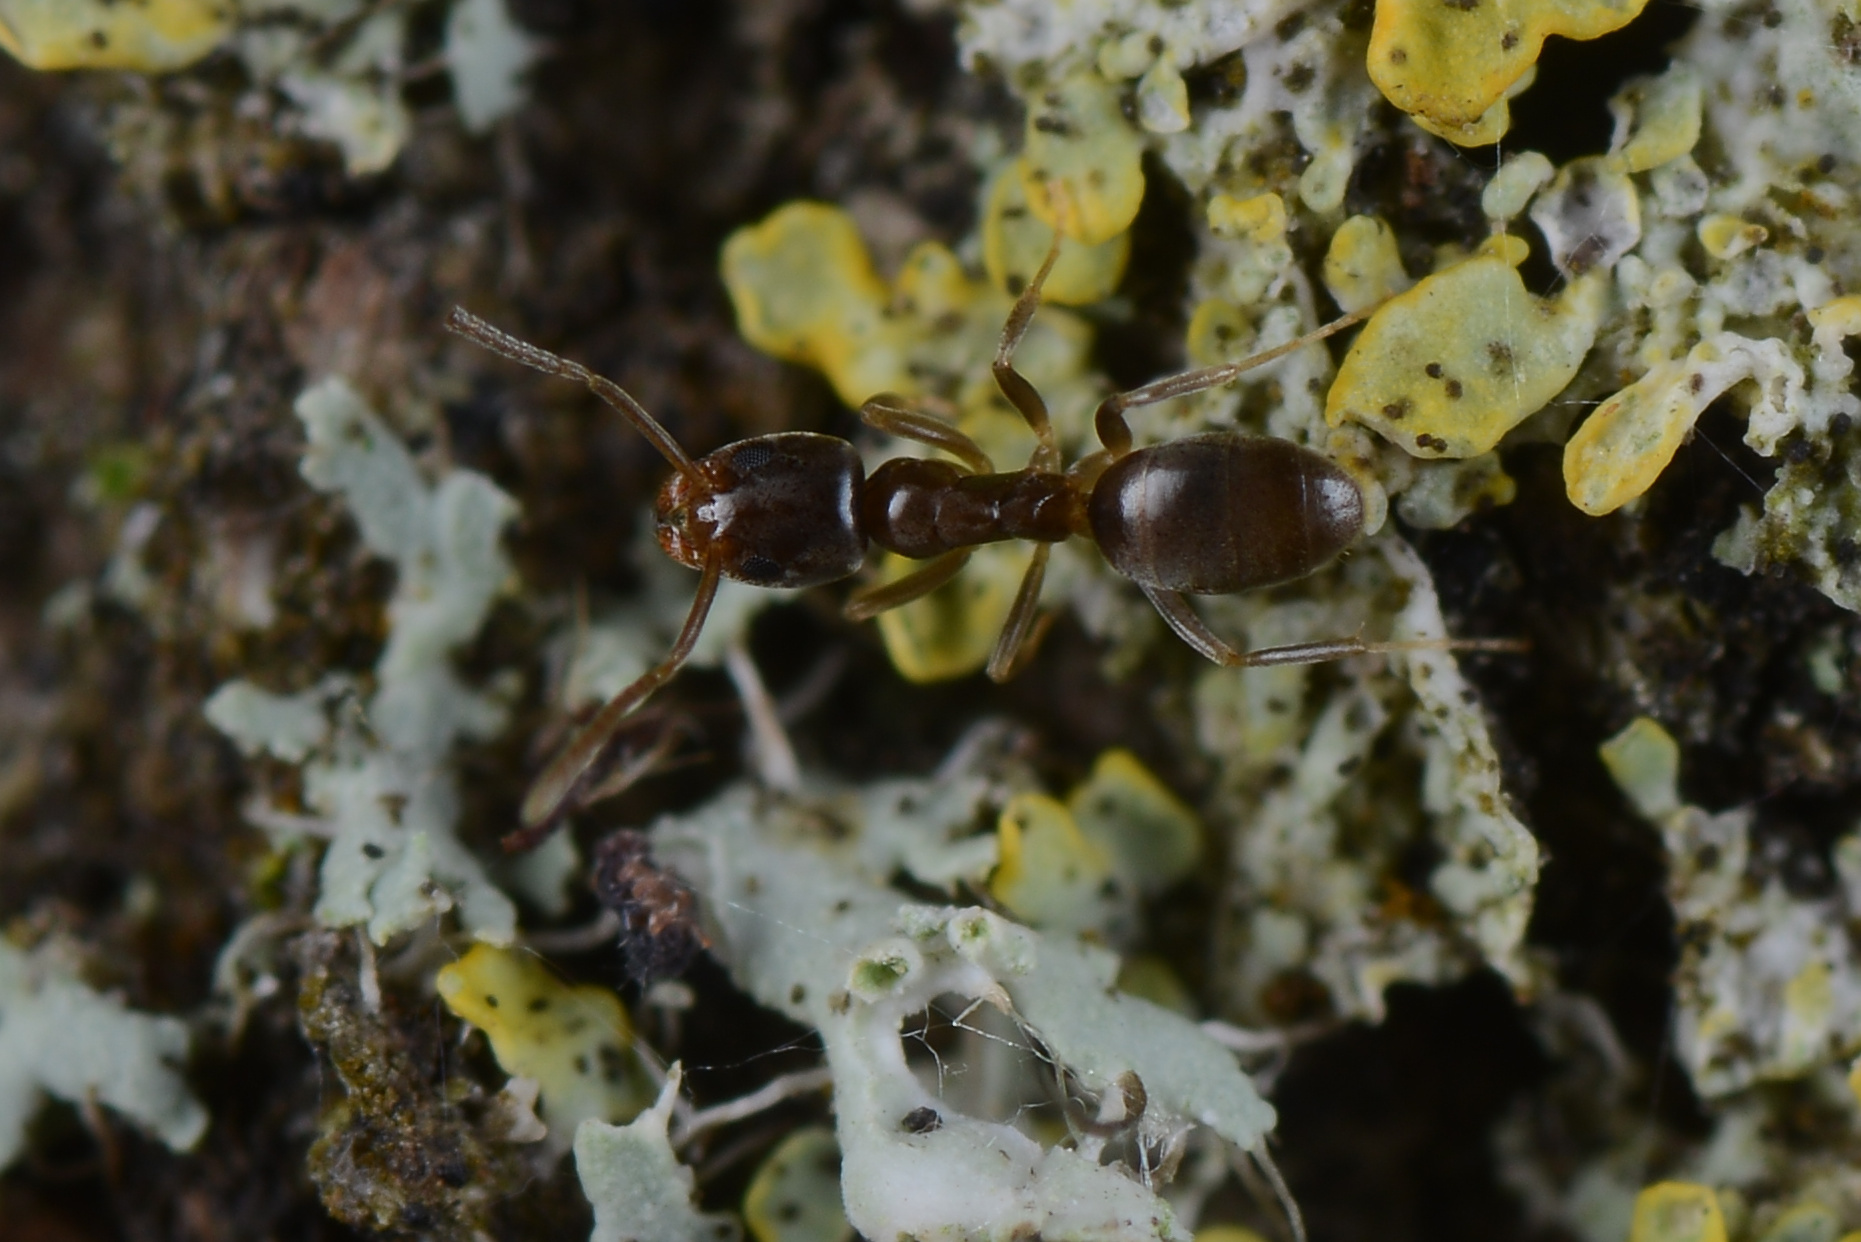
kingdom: Animalia
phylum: Arthropoda
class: Insecta
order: Hymenoptera
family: Formicidae
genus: Doleromyrma
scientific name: Doleromyrma darwiniana
